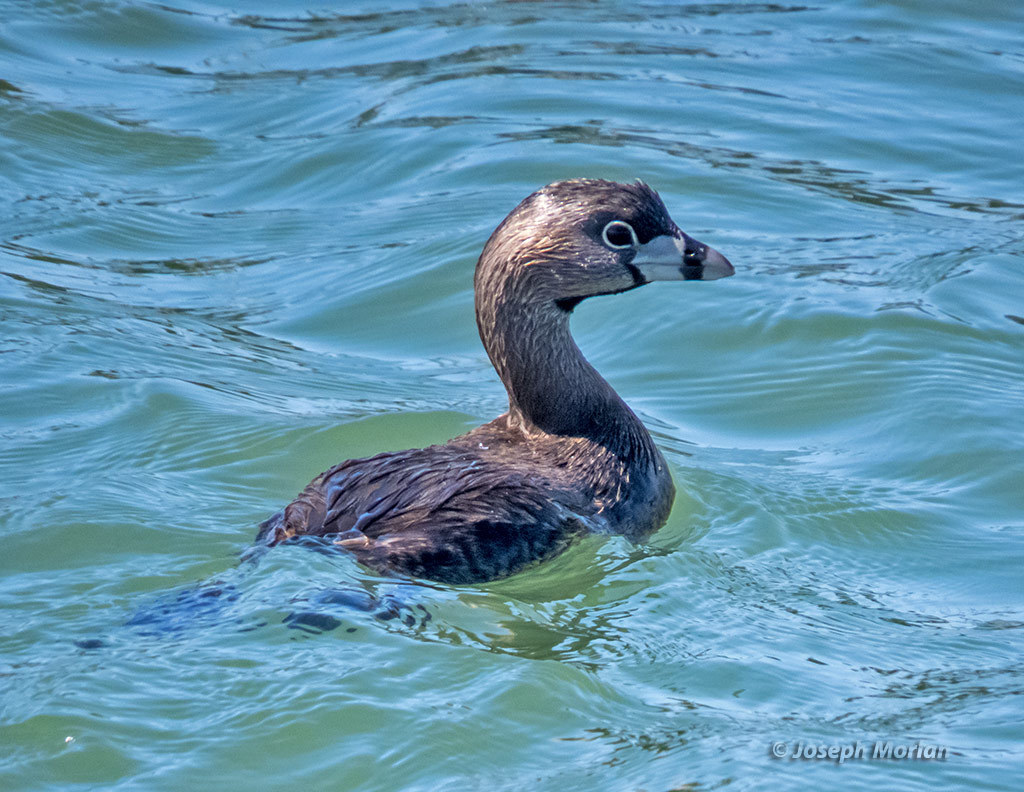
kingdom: Animalia
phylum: Chordata
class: Aves
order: Podicipediformes
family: Podicipedidae
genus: Podilymbus
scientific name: Podilymbus podiceps
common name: Pied-billed grebe
